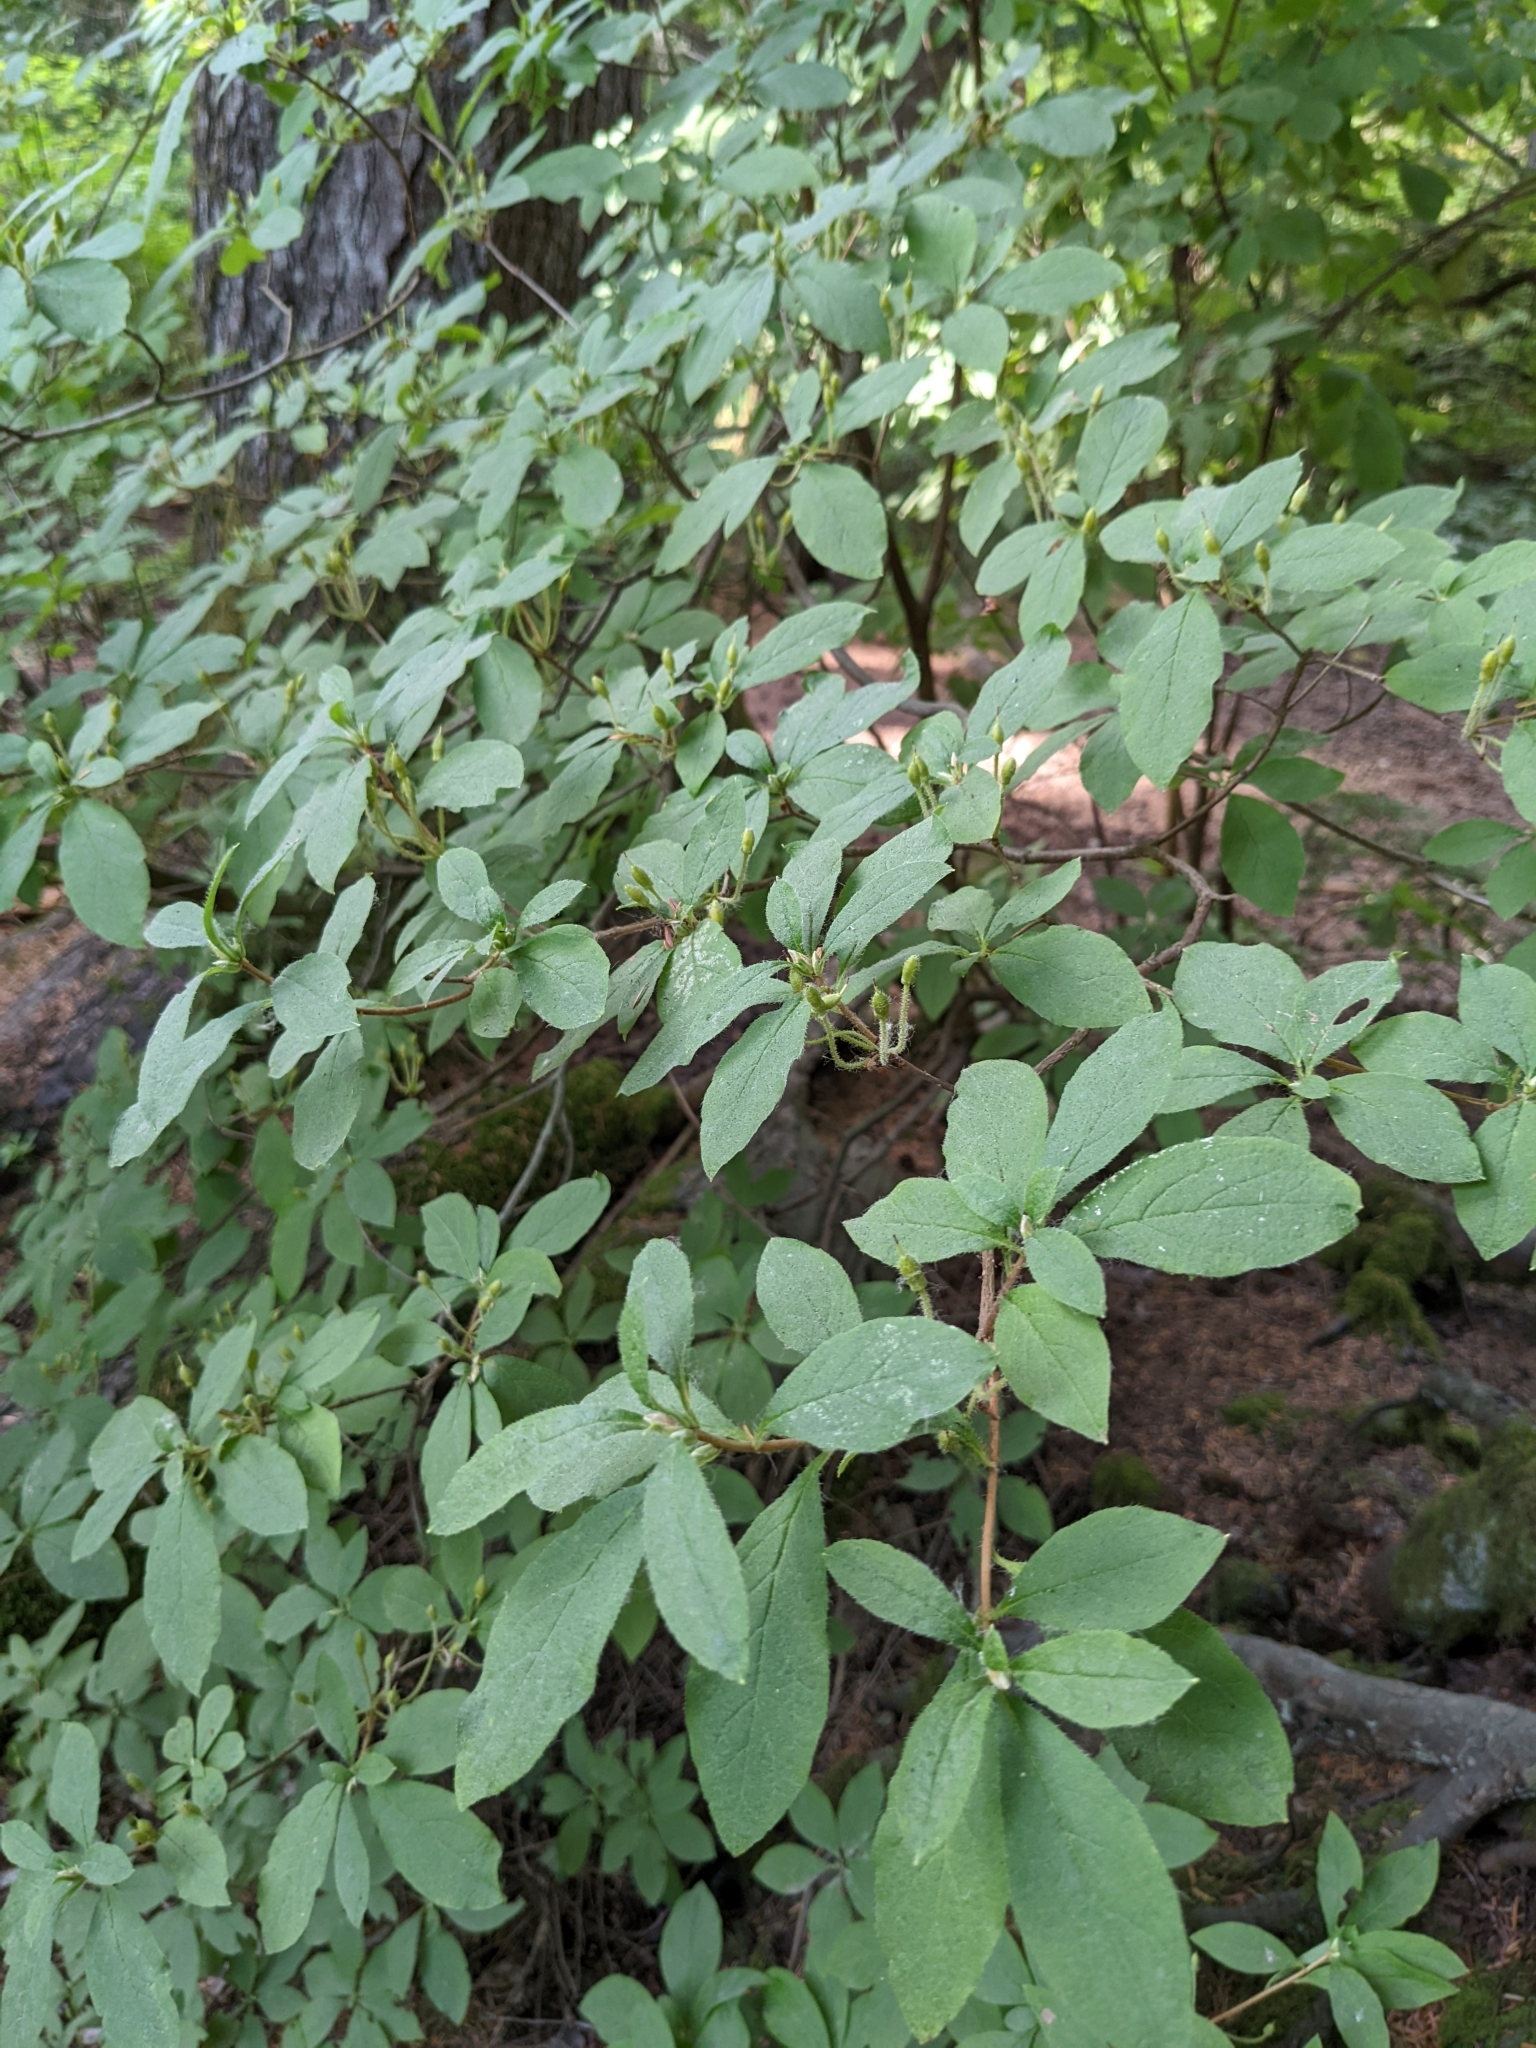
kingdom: Plantae
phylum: Tracheophyta
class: Magnoliopsida
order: Ericales
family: Ericaceae
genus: Rhododendron
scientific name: Rhododendron menziesii
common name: Pacific menziesia
